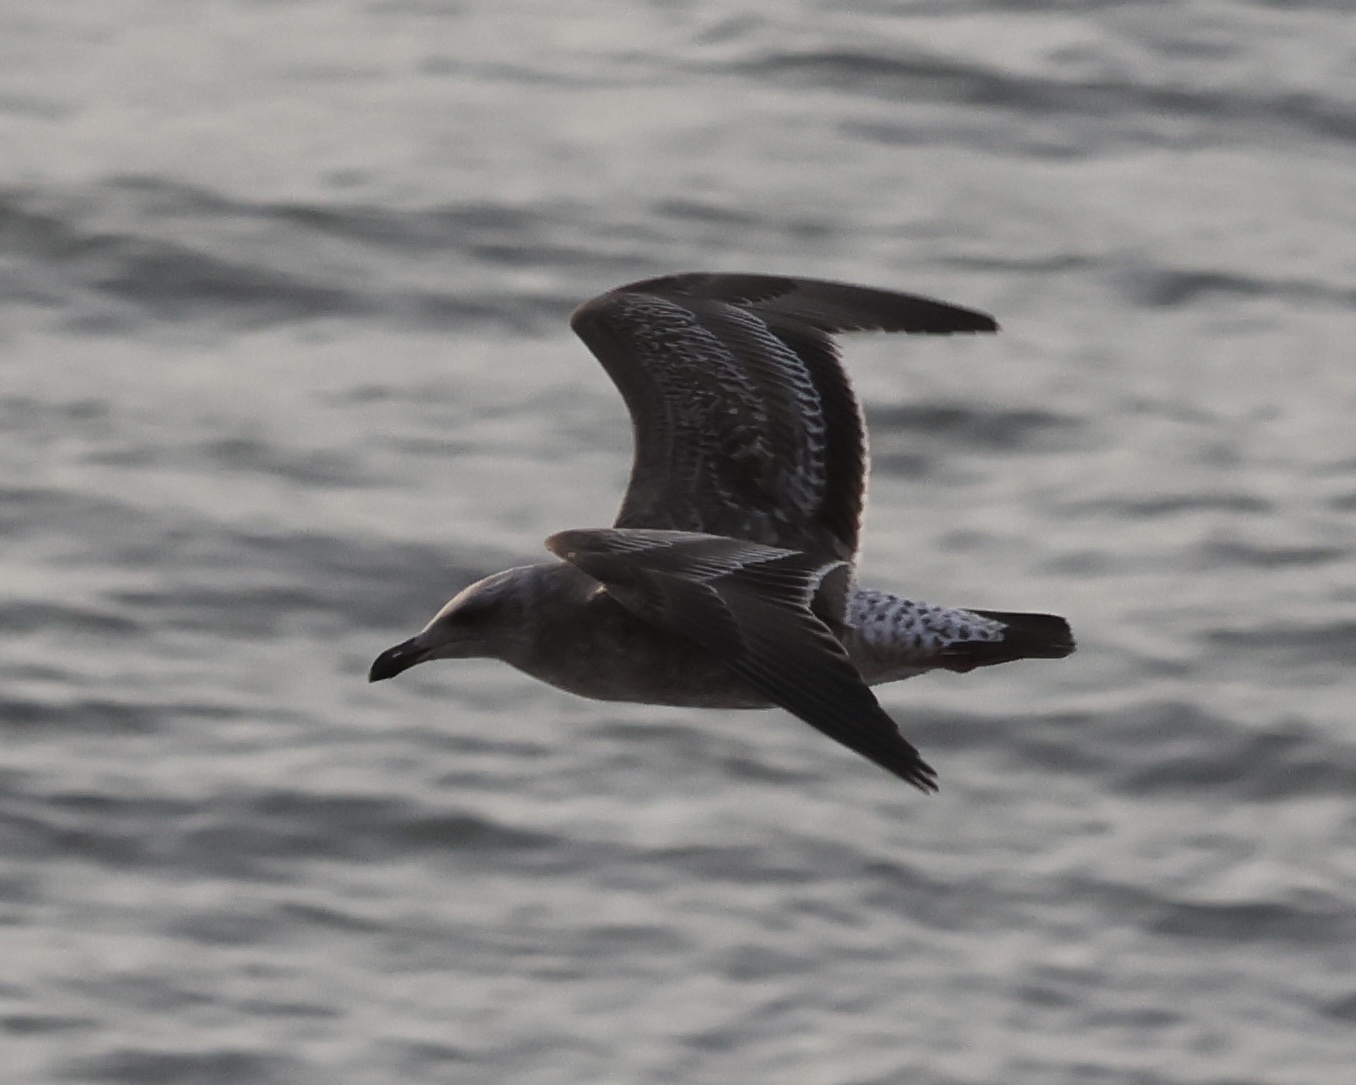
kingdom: Animalia
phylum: Chordata
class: Aves
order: Charadriiformes
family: Laridae
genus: Larus
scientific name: Larus occidentalis
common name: Western gull
